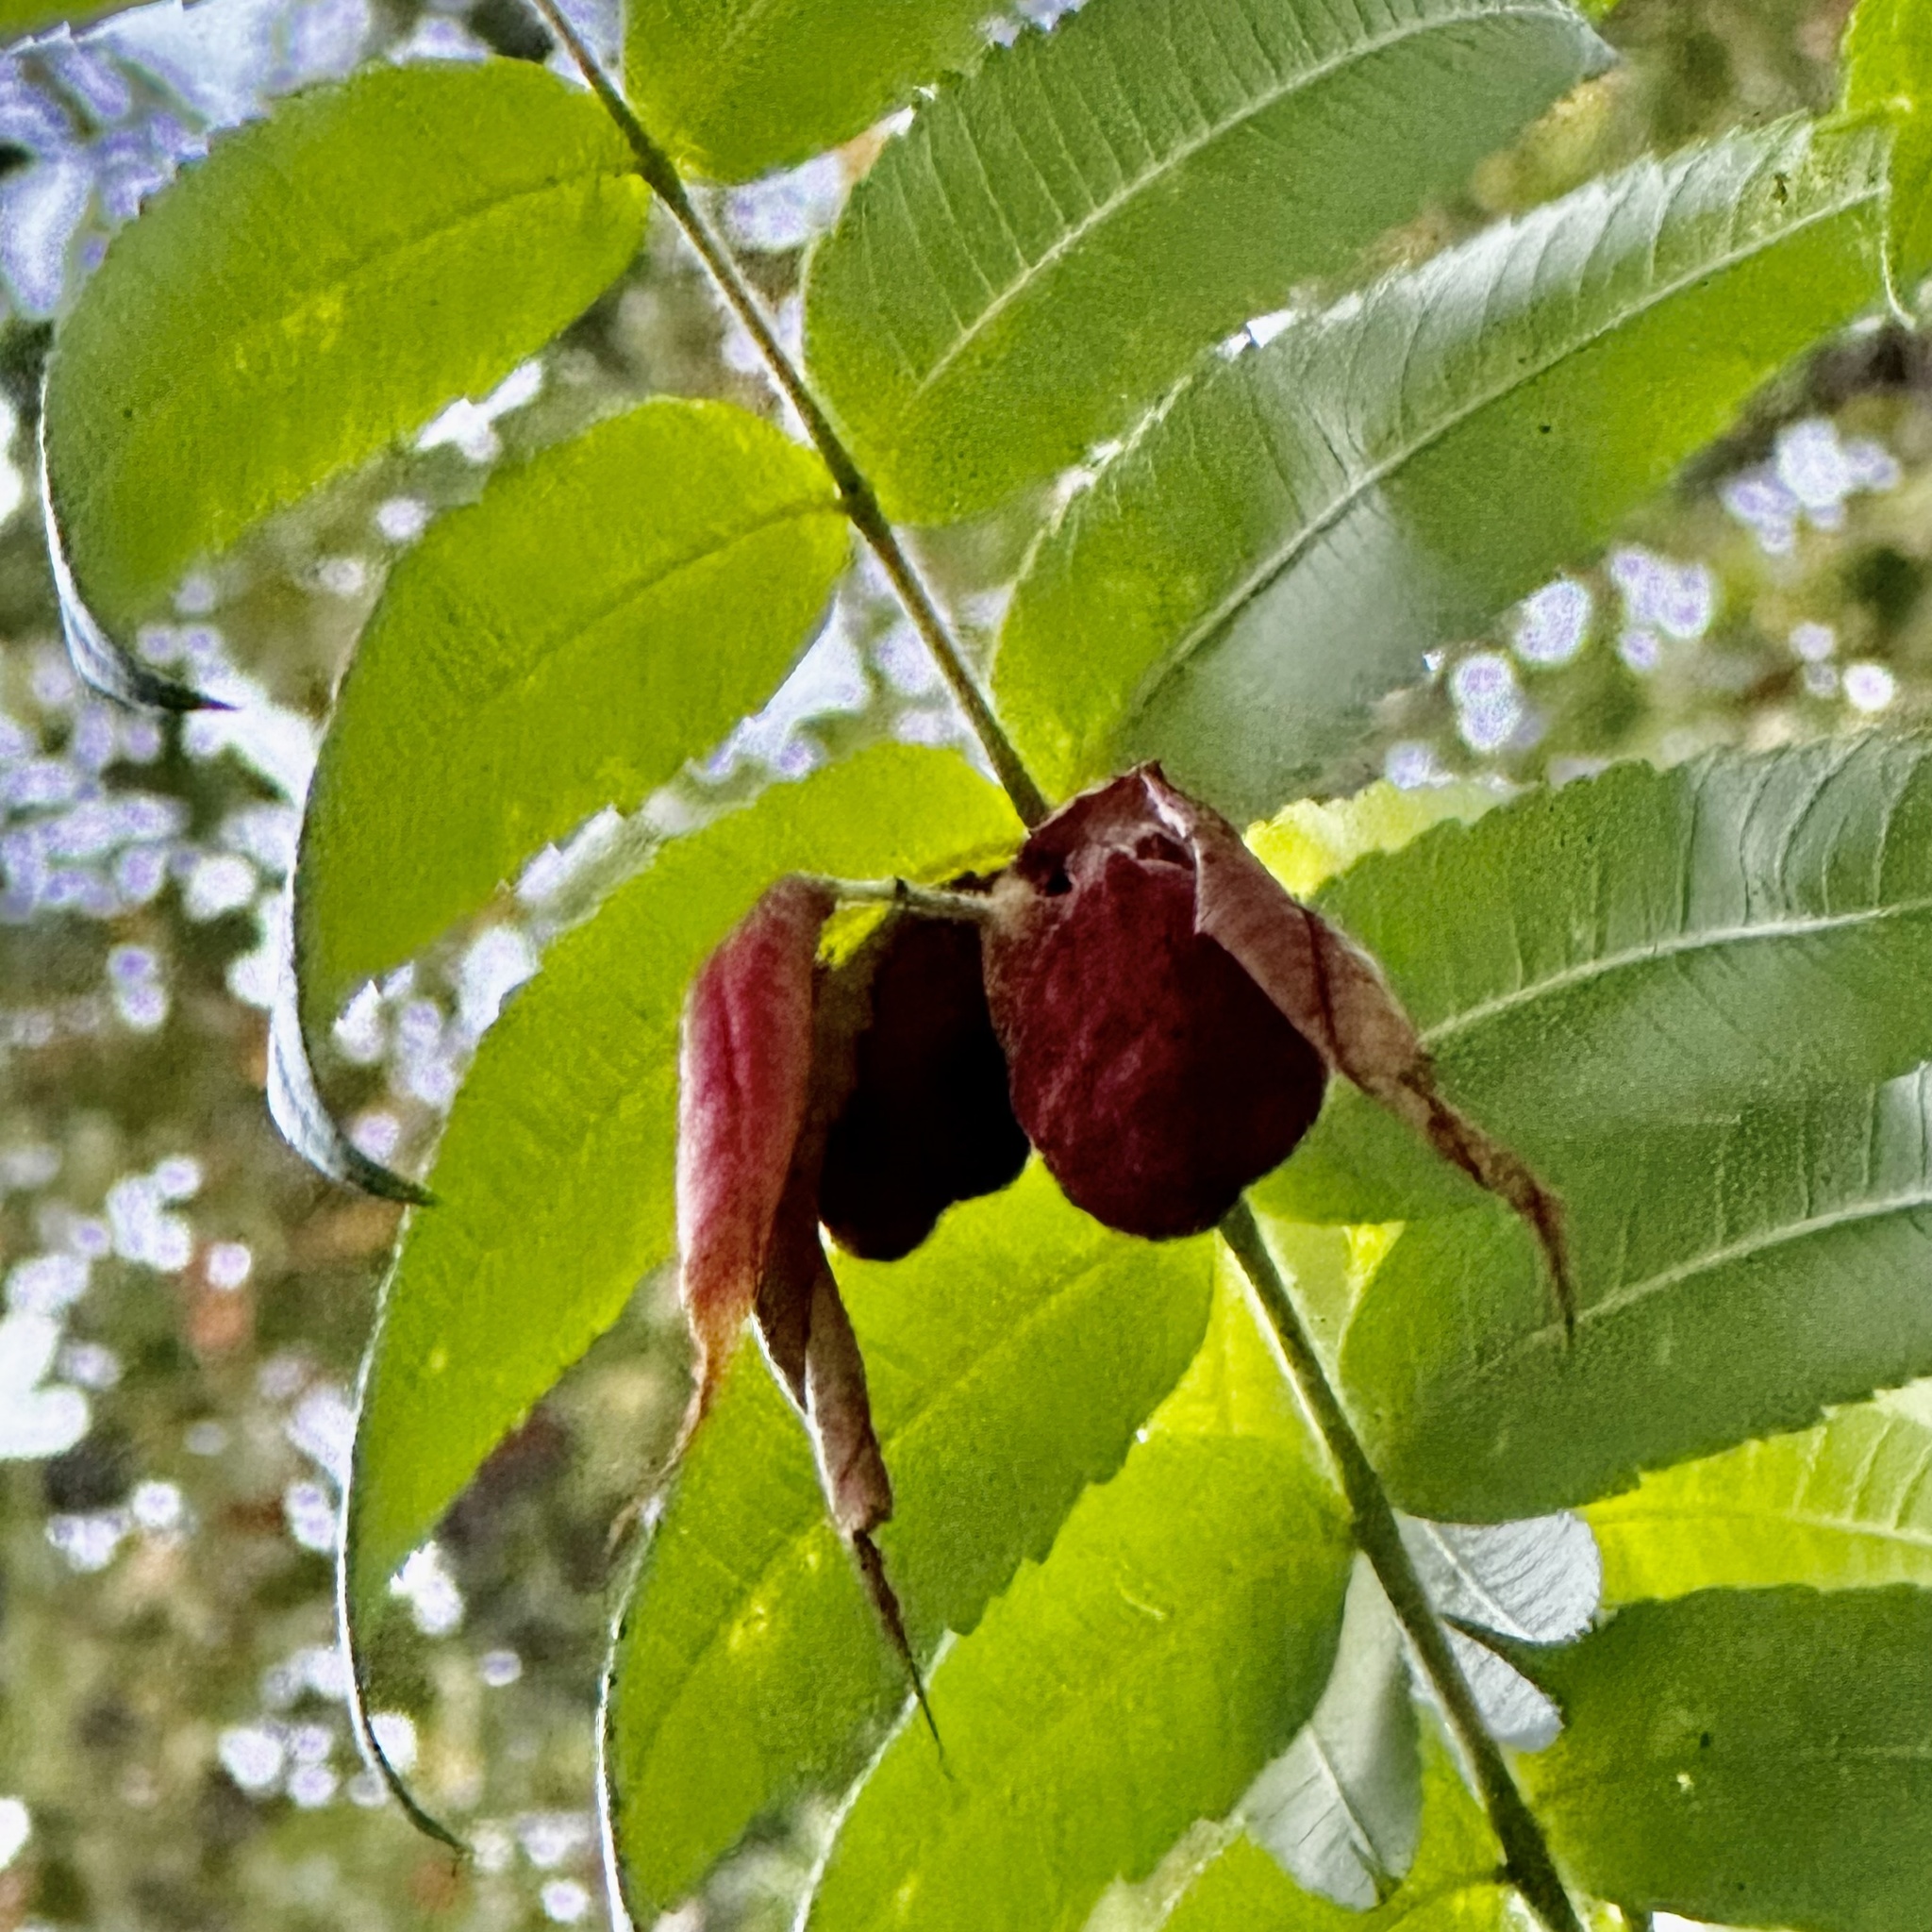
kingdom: Animalia
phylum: Arthropoda
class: Insecta
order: Hemiptera
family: Aphididae
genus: Melaphis
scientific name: Melaphis rhois
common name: Sumac gall aphid
